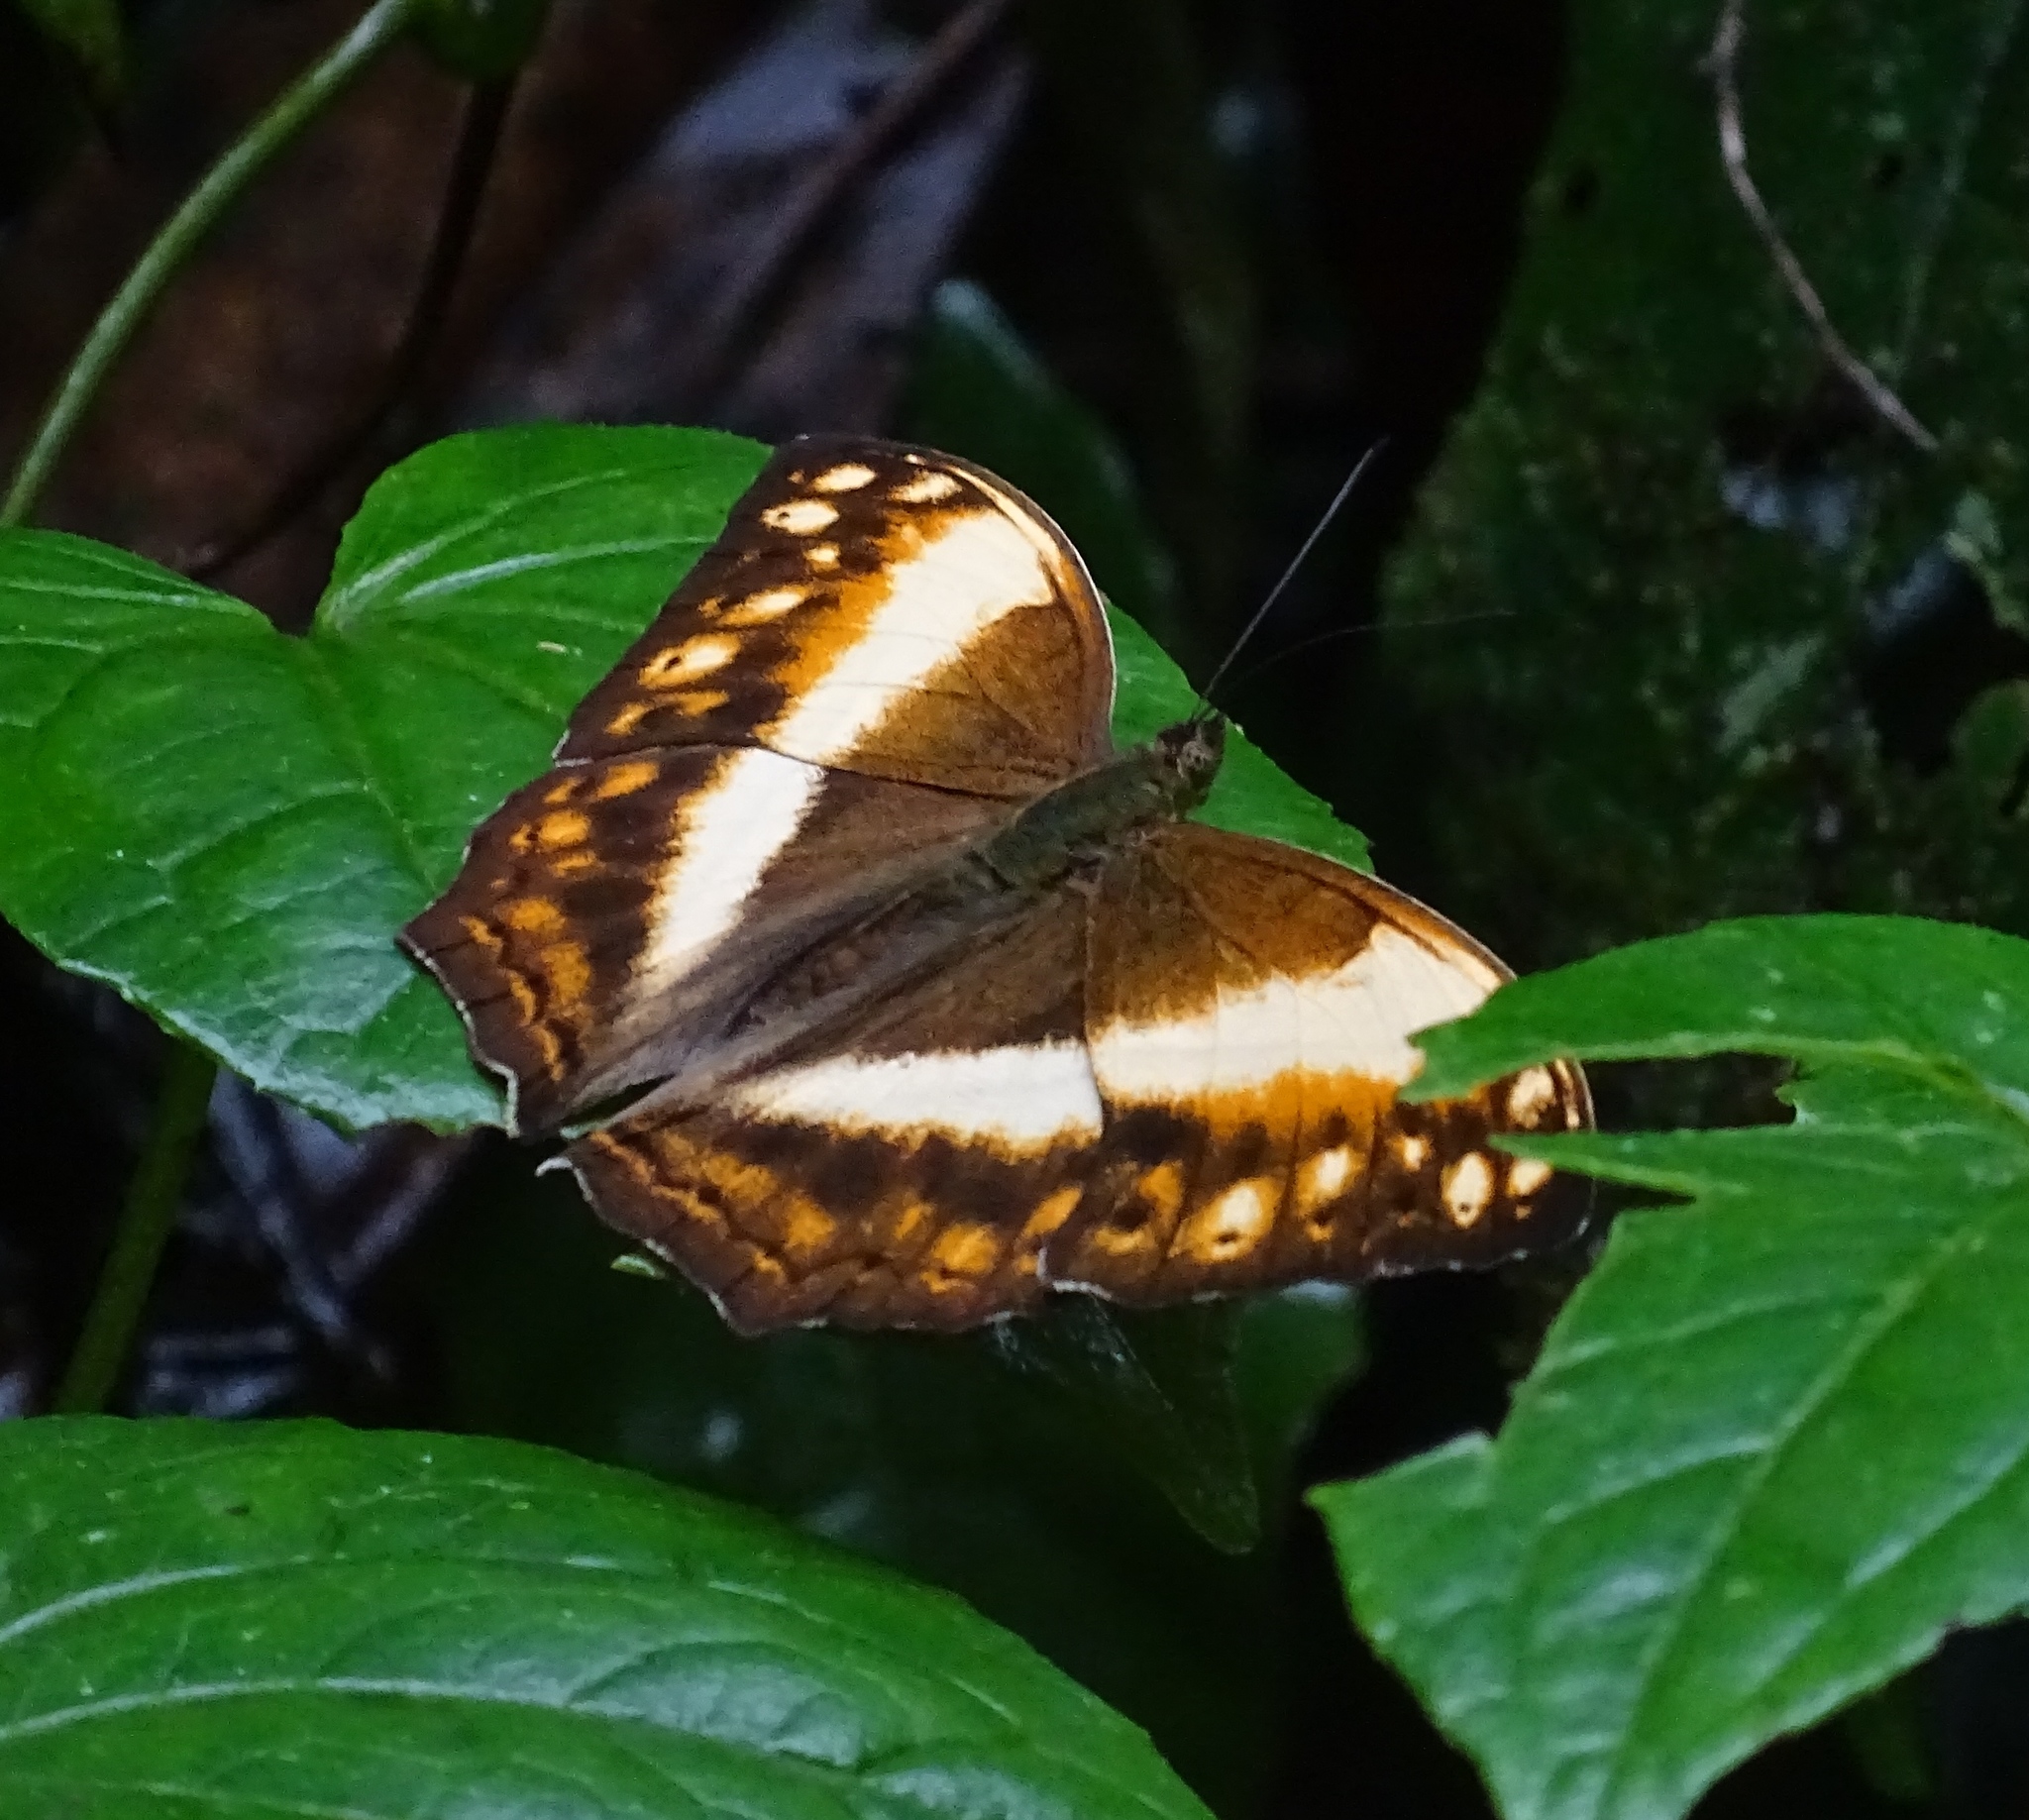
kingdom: Animalia
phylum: Arthropoda
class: Insecta
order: Lepidoptera
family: Nymphalidae
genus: Cymothoe
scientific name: Cymothoe
